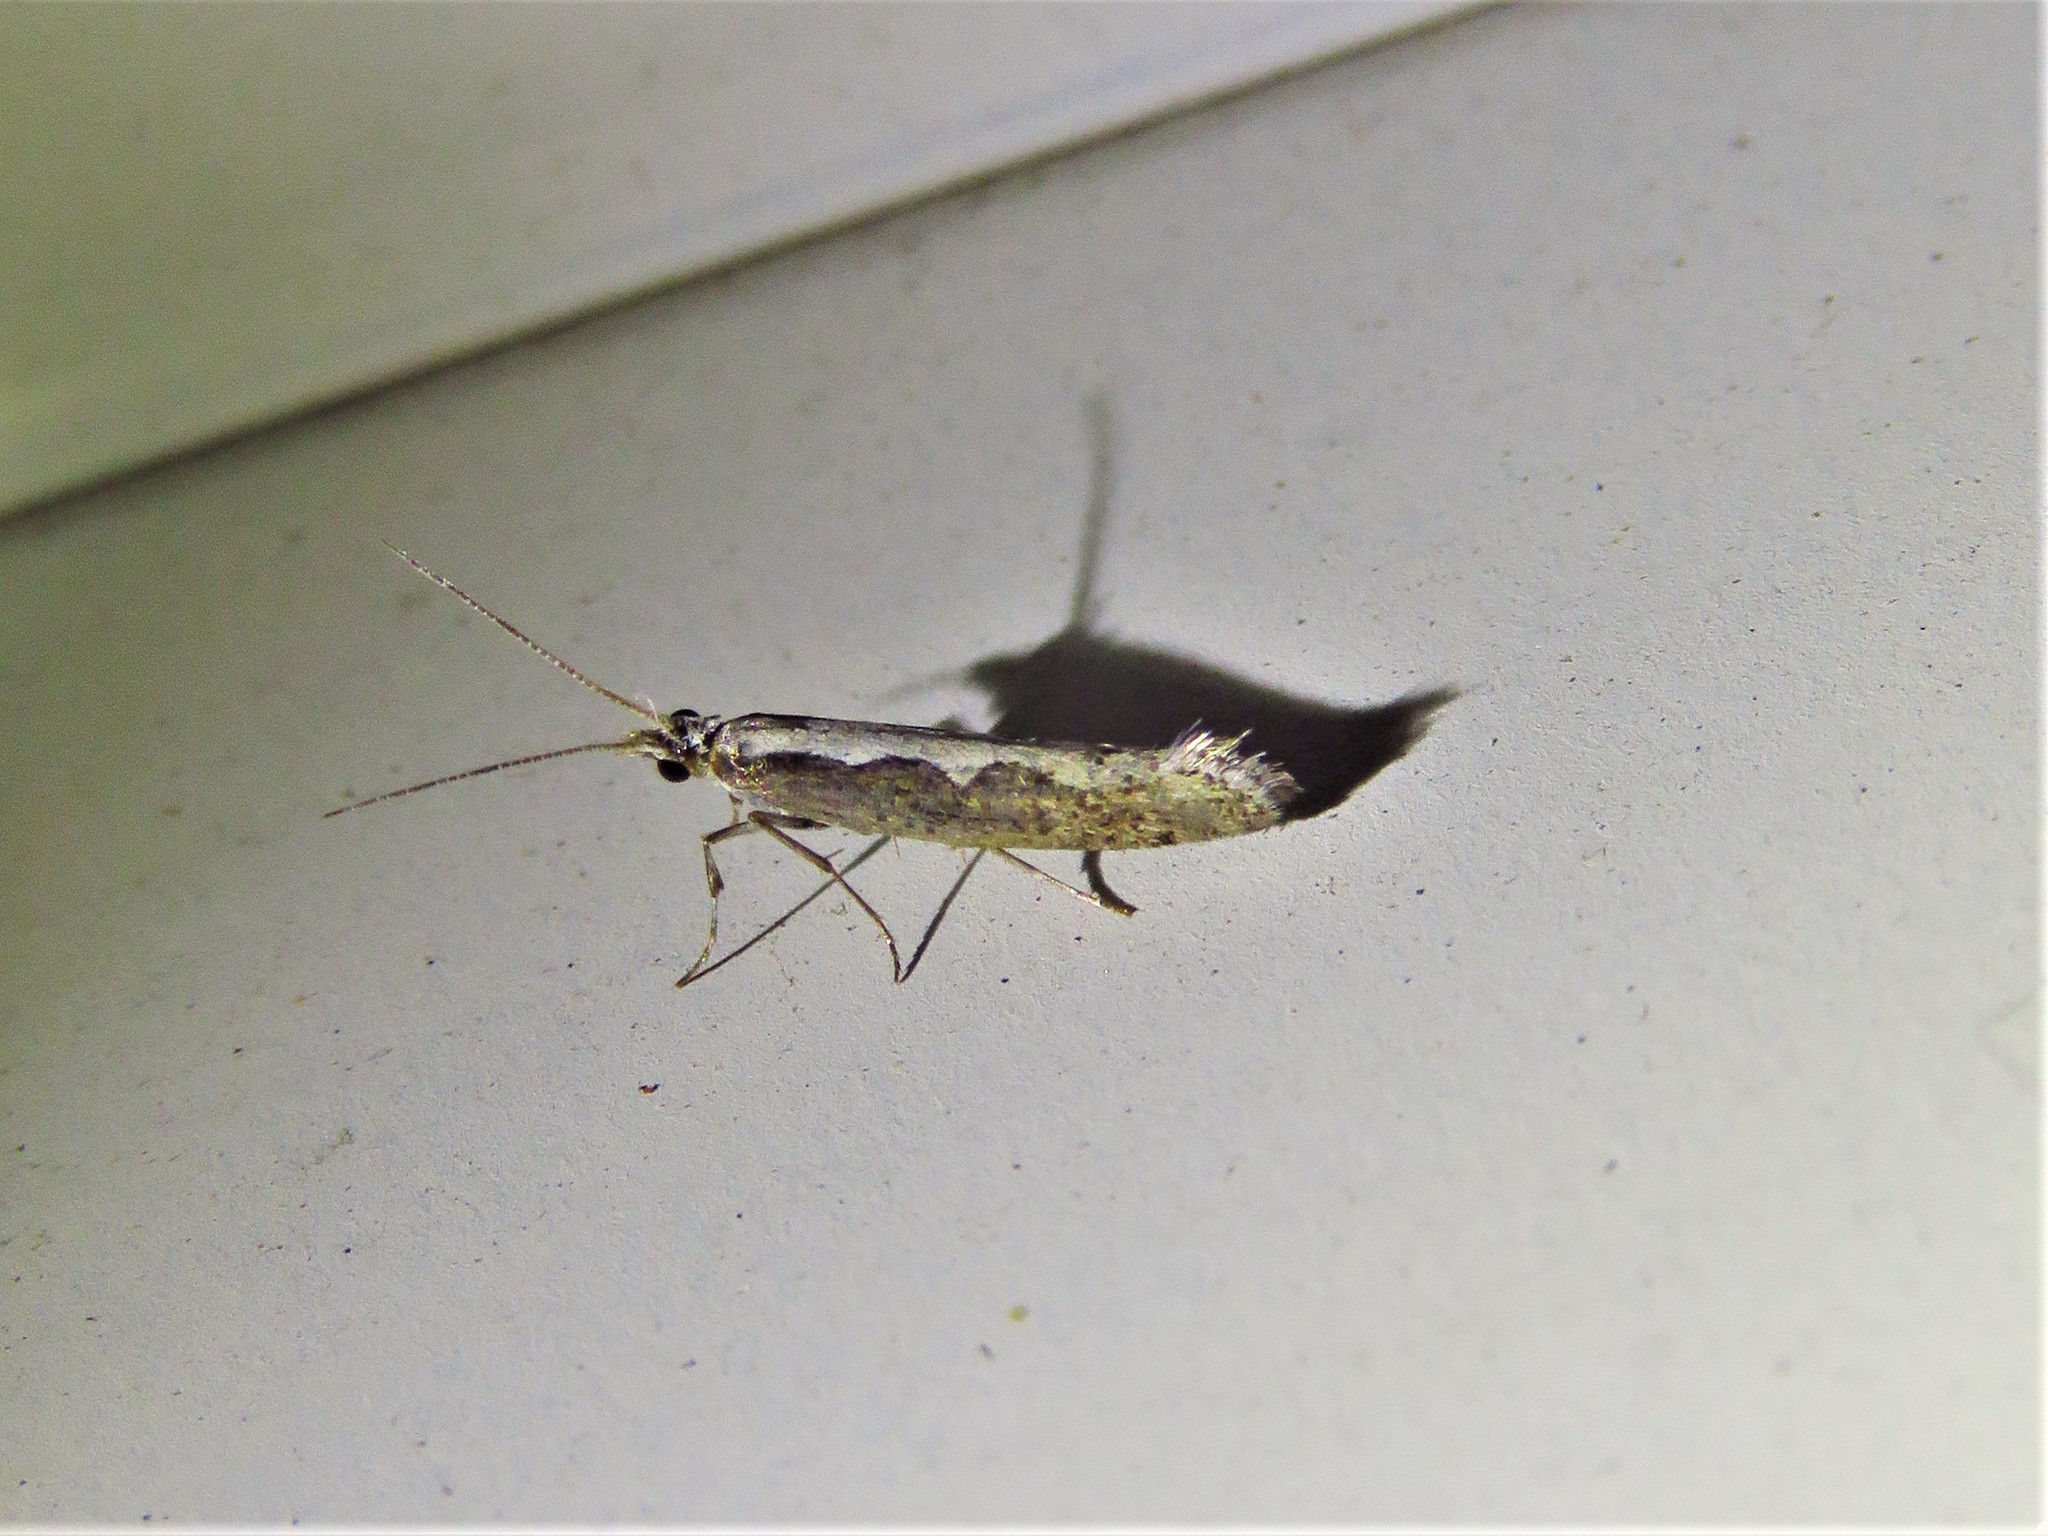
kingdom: Animalia
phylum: Arthropoda
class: Insecta
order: Lepidoptera
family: Plutellidae
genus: Plutella
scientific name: Plutella xylostella
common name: Diamond-back moth
